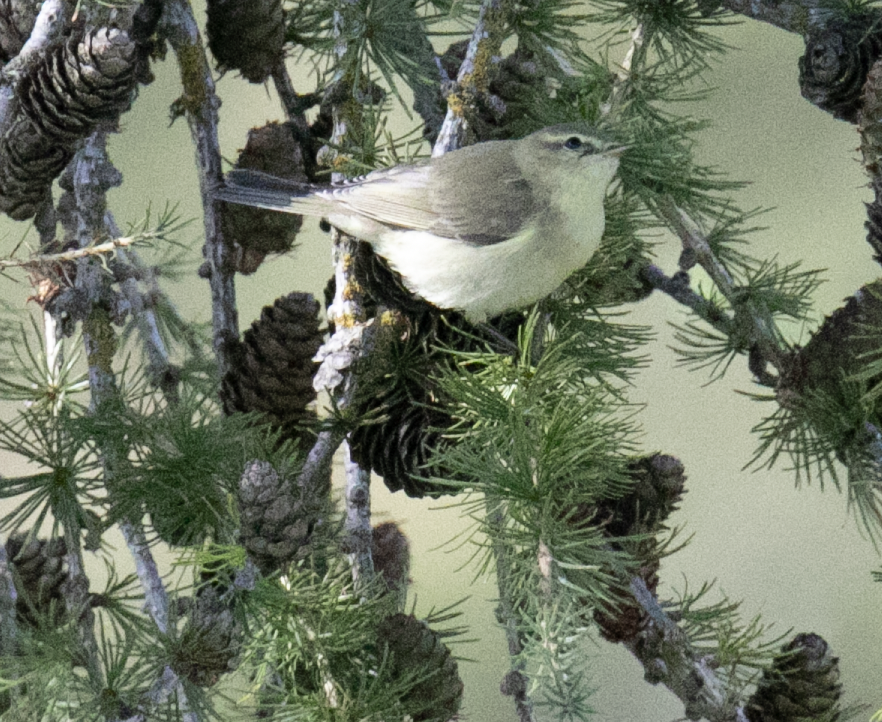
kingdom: Animalia
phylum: Chordata
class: Aves
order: Passeriformes
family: Phylloscopidae
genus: Phylloscopus
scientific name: Phylloscopus collybita
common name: Common chiffchaff
